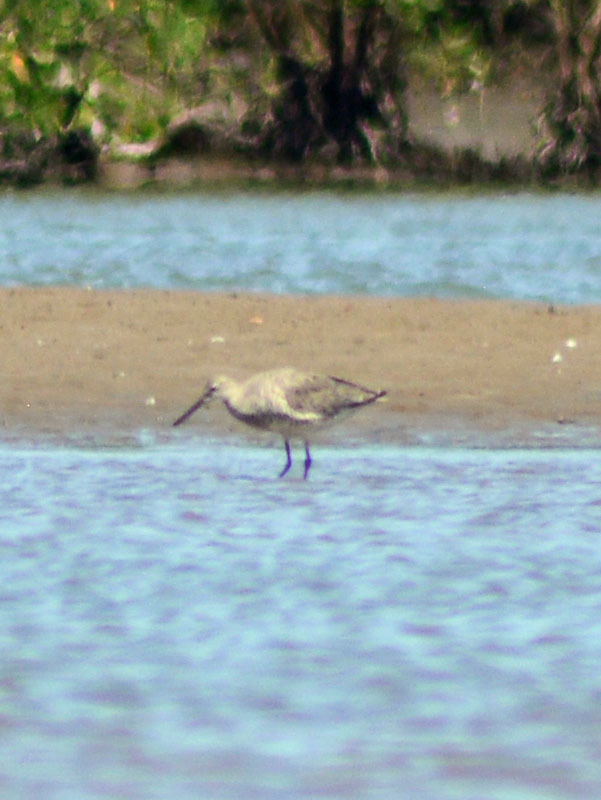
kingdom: Animalia
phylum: Chordata
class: Aves
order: Charadriiformes
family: Scolopacidae
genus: Tringa
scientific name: Tringa semipalmata
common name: Willet
